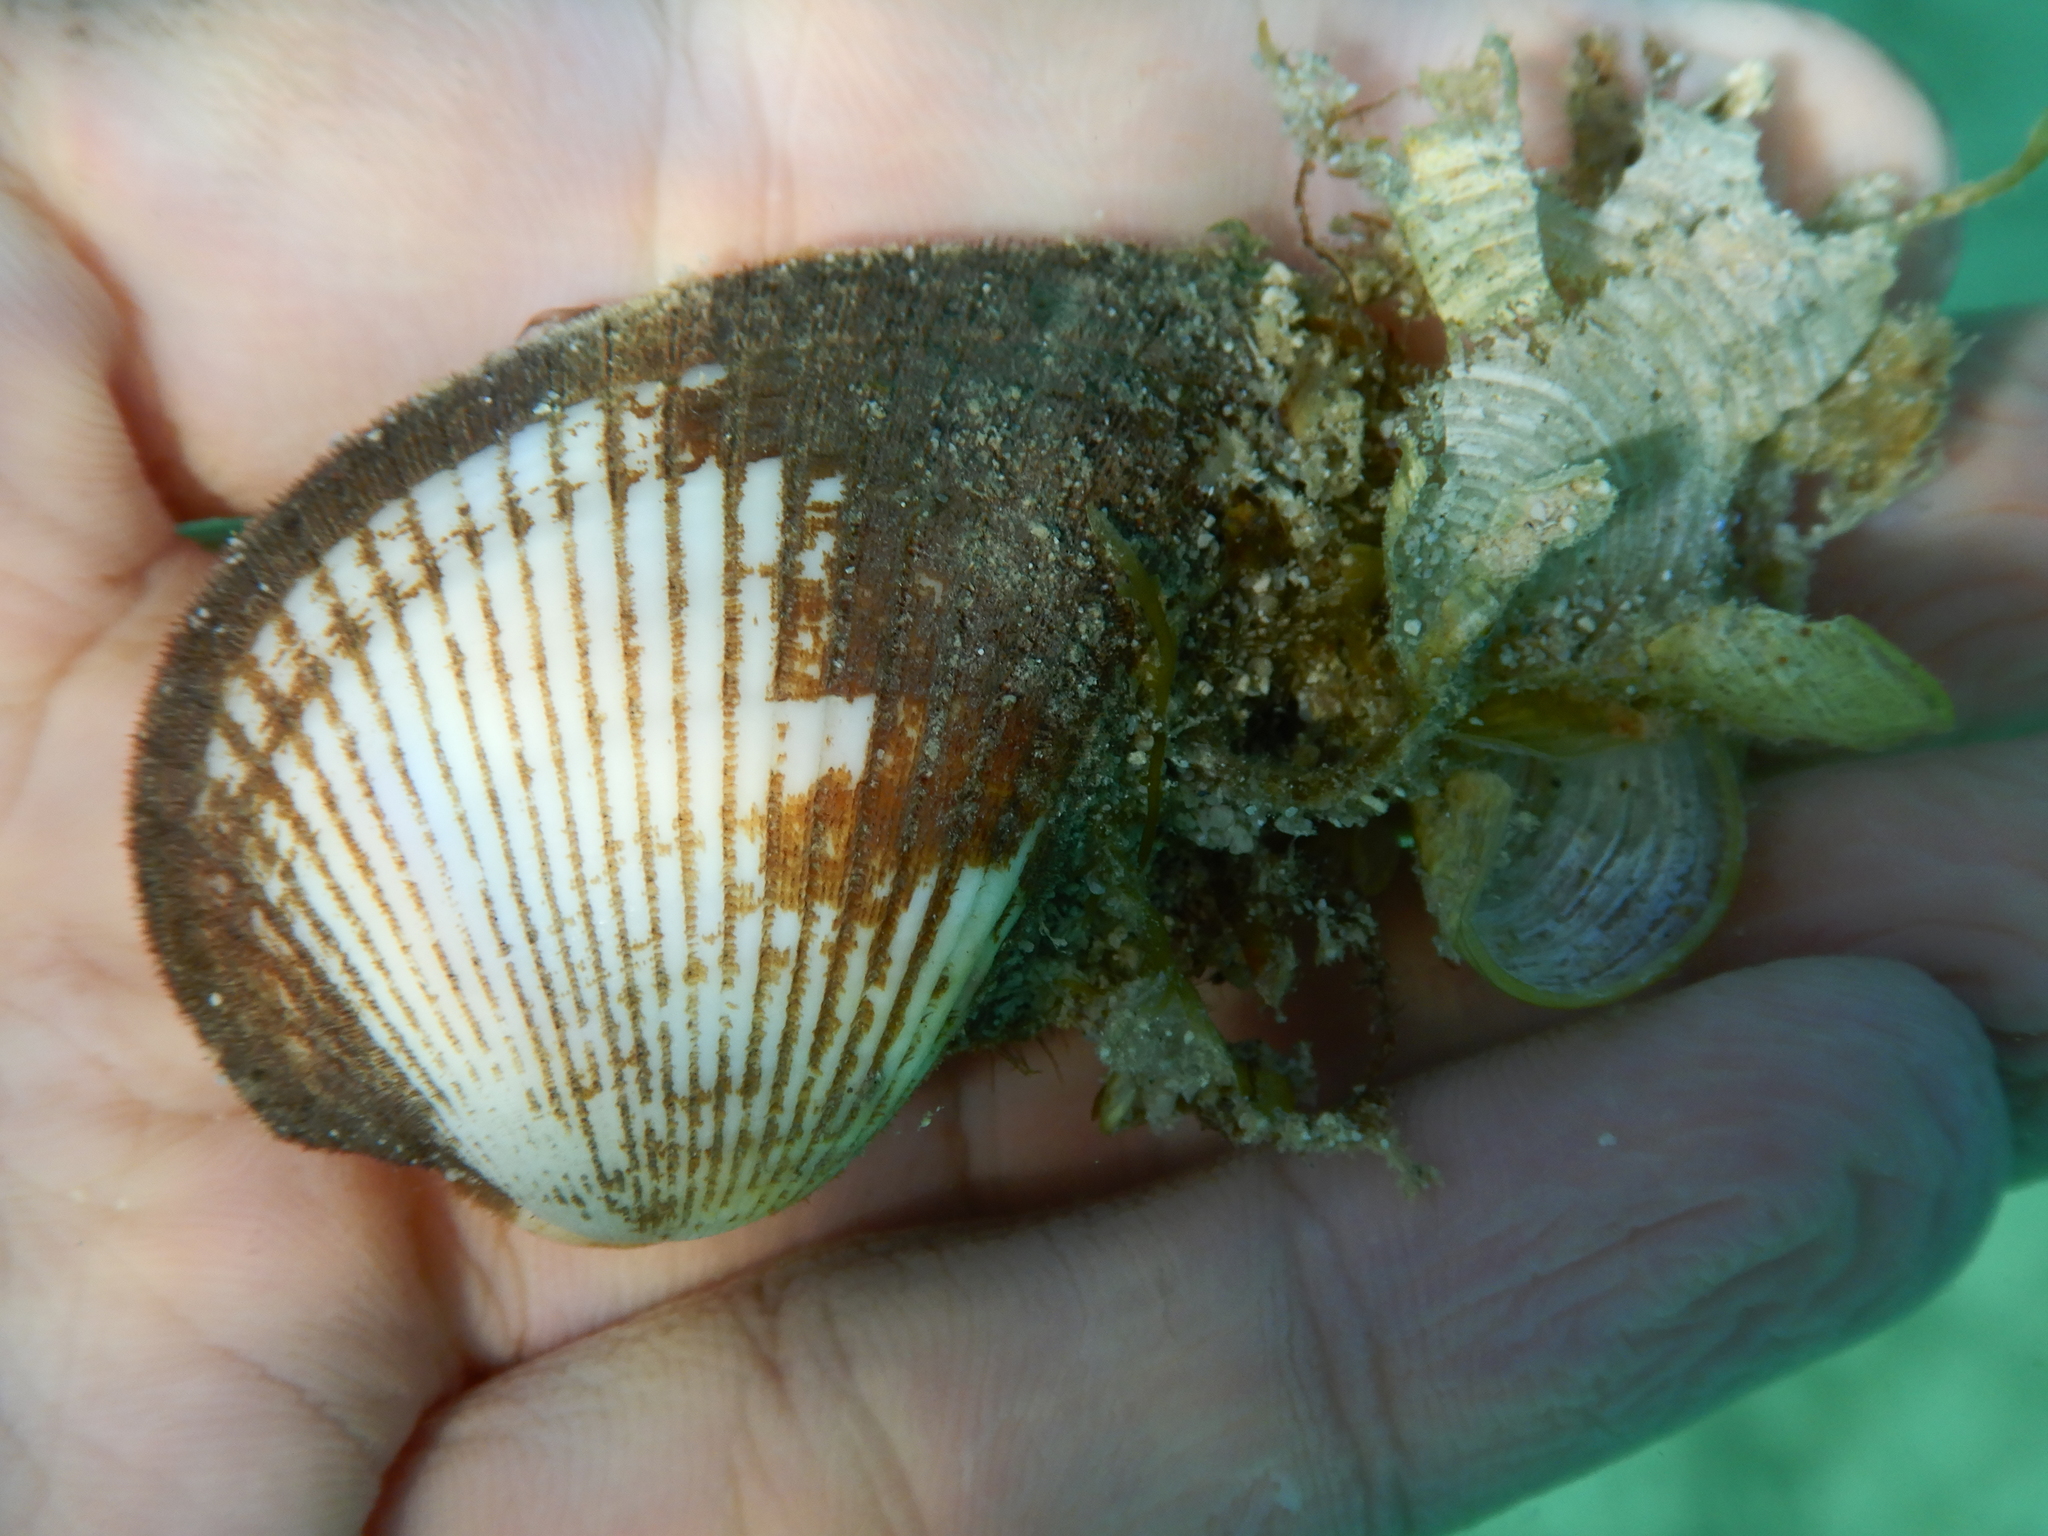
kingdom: Animalia
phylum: Mollusca
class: Bivalvia
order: Arcida
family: Arcidae
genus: Anadara
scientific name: Anadara antiquata
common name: Antique ark
